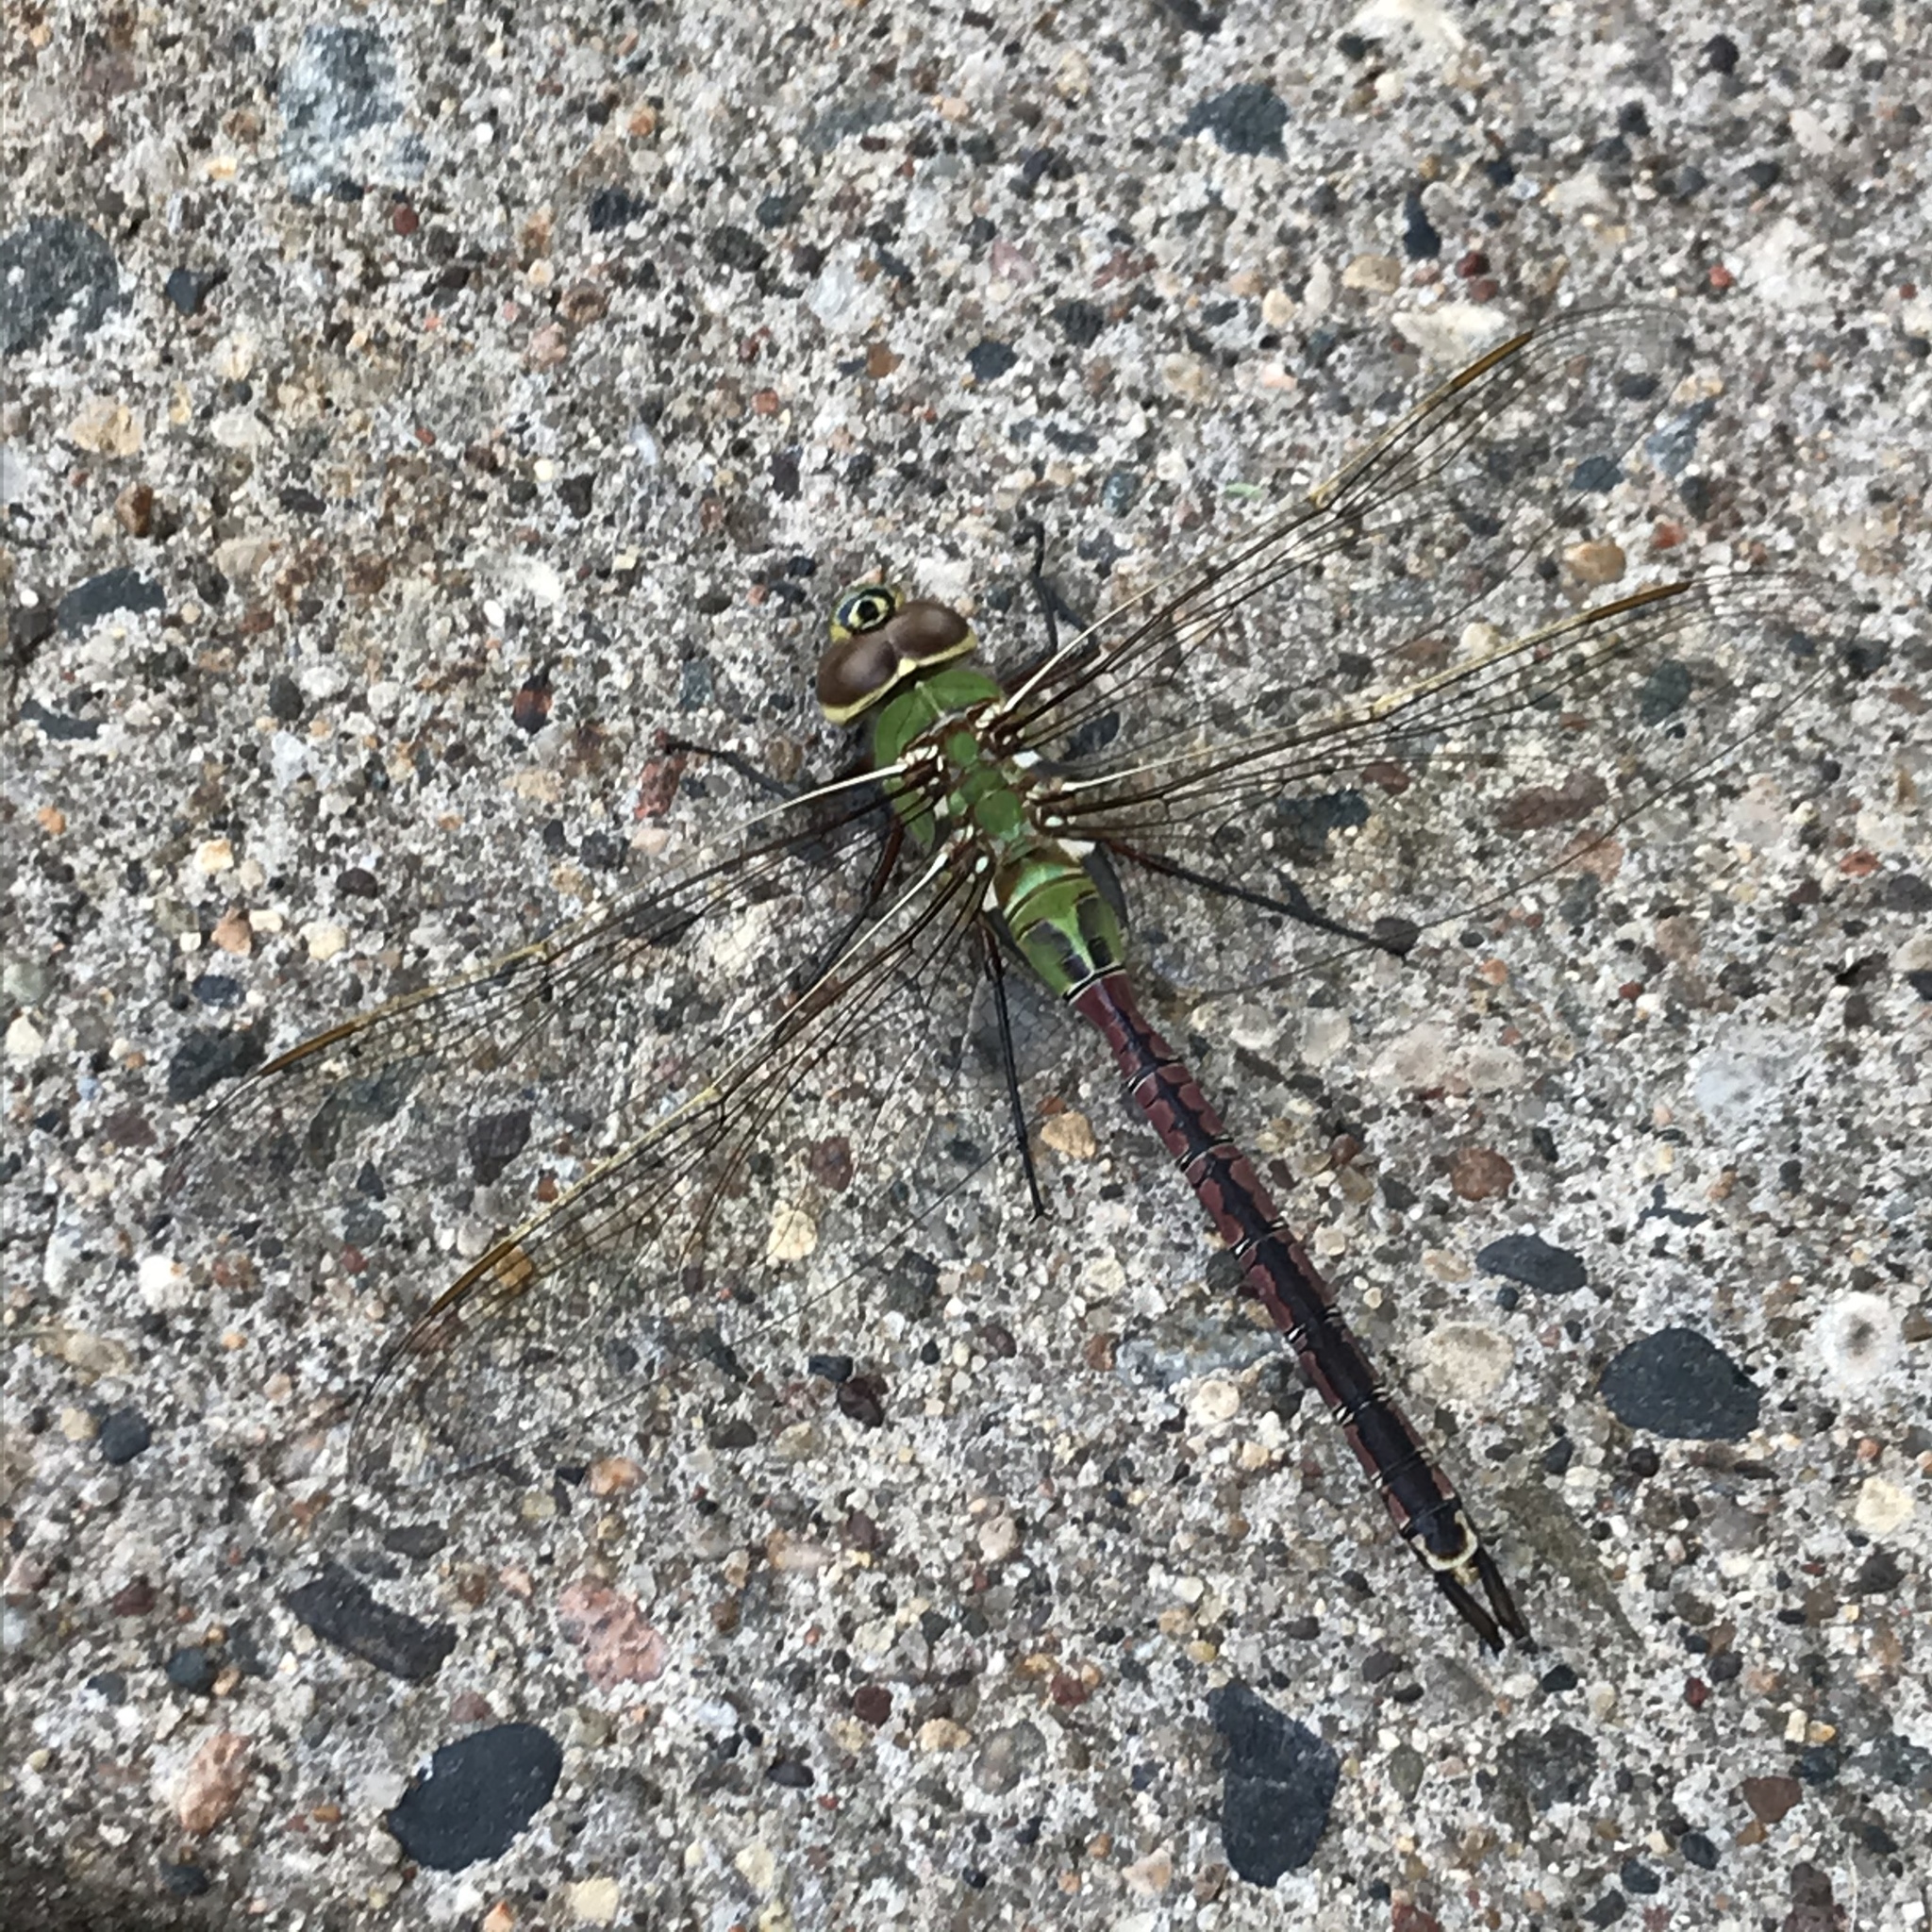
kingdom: Animalia
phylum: Arthropoda
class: Insecta
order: Odonata
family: Aeshnidae
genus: Anax
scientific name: Anax junius
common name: Common green darner
